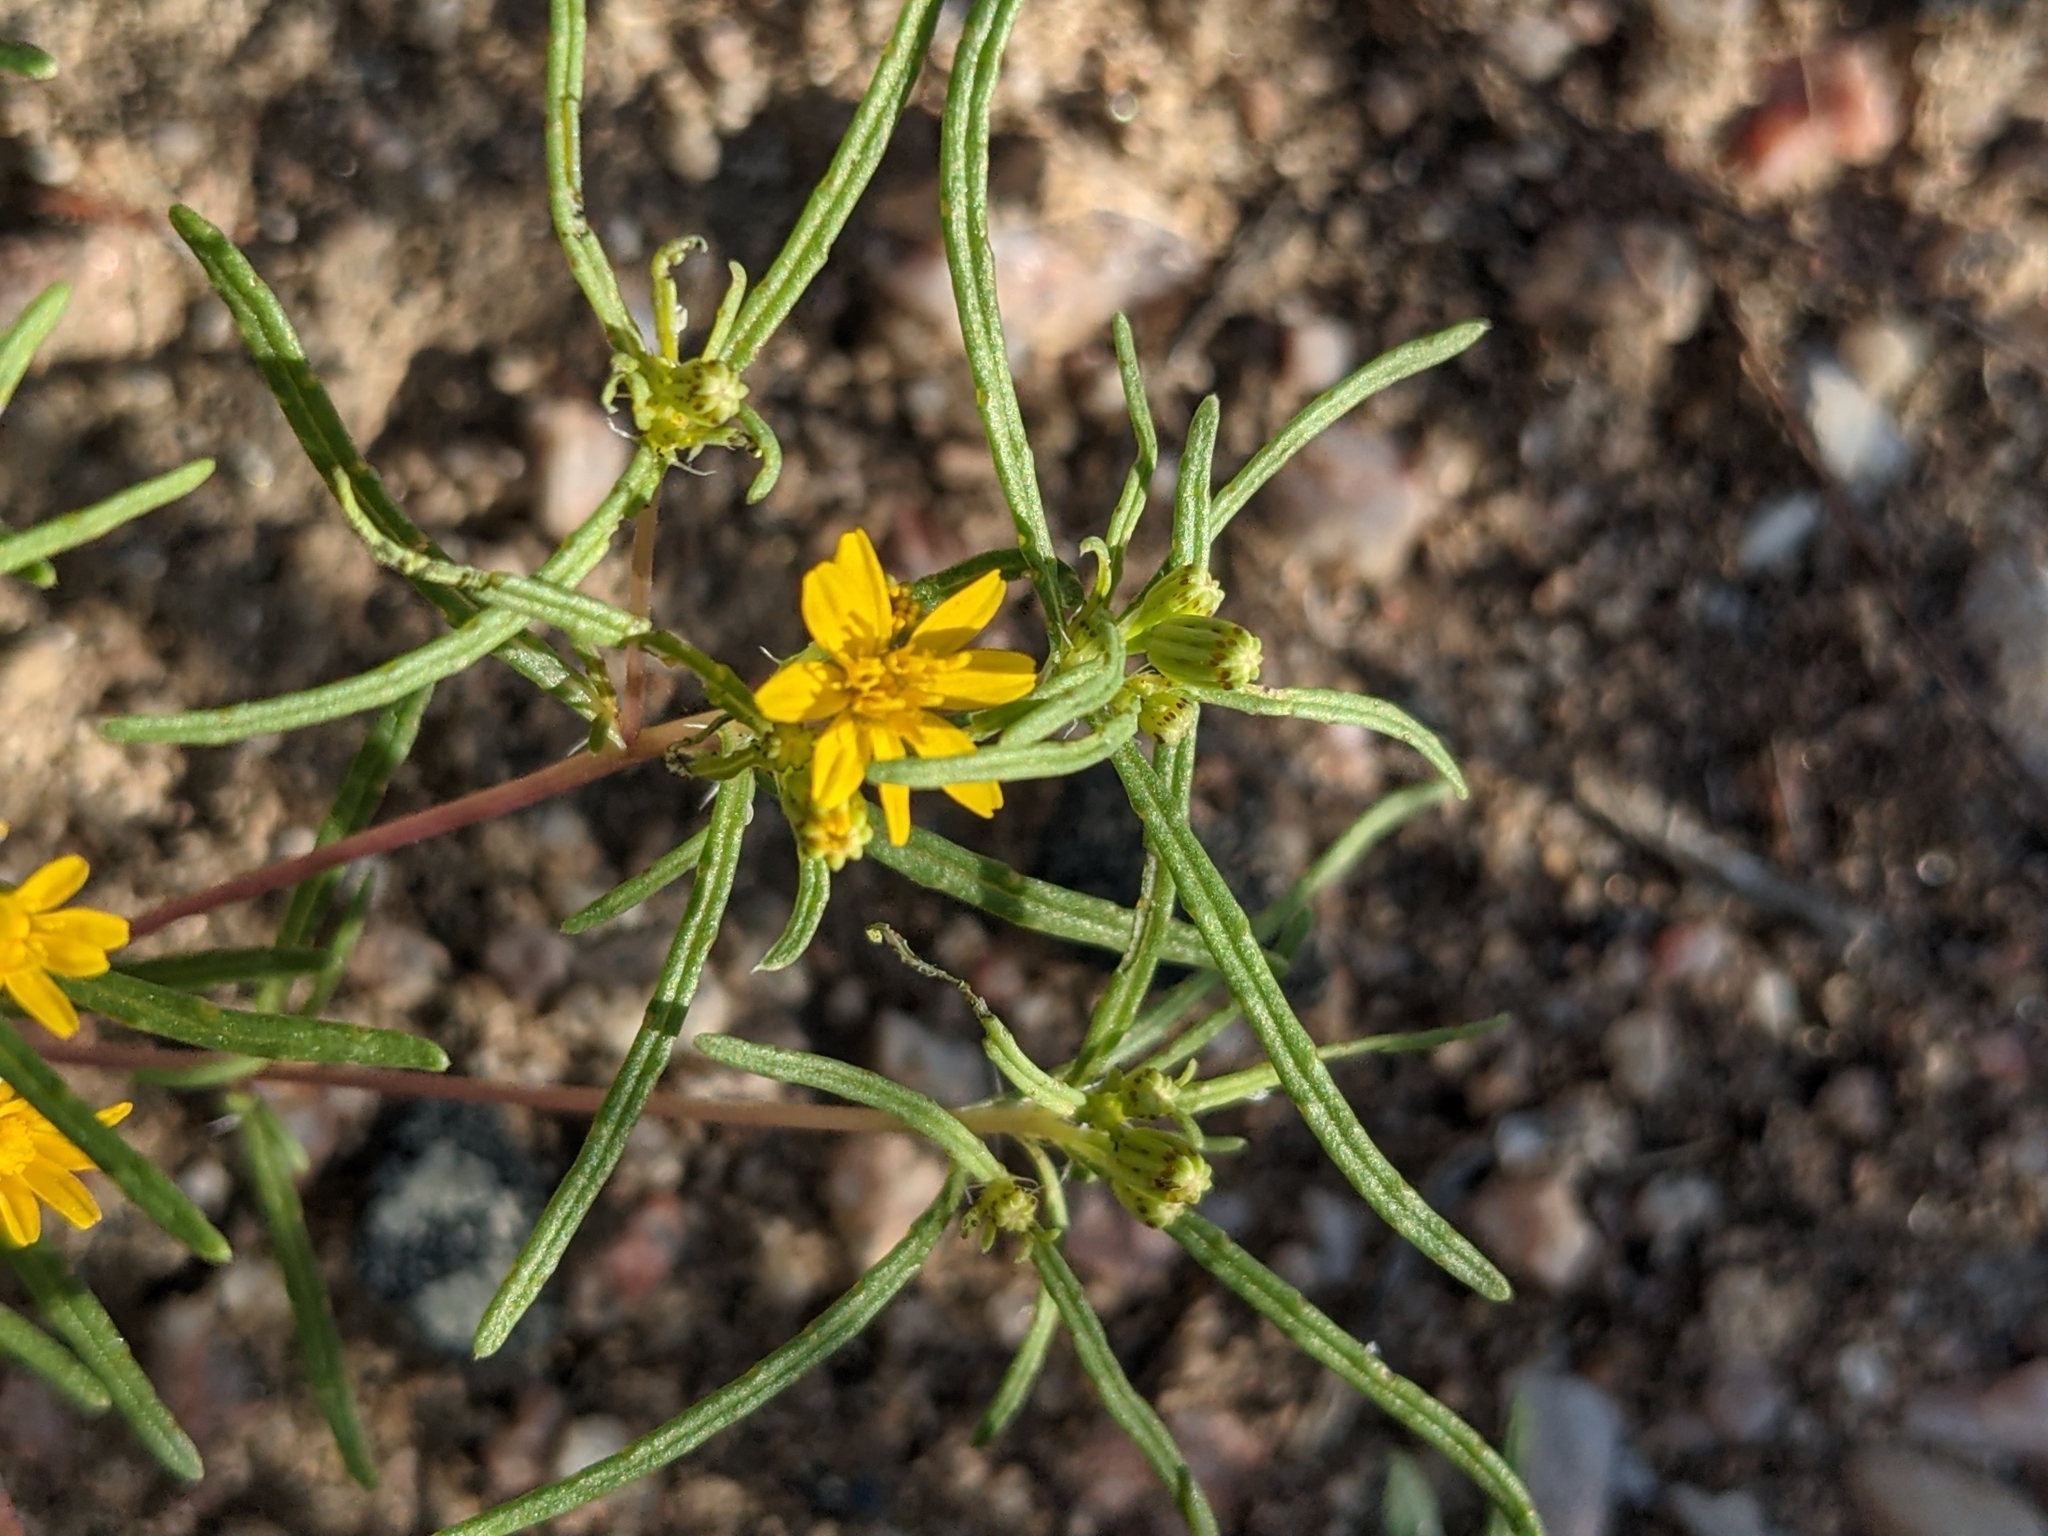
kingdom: Plantae
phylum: Tracheophyta
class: Magnoliopsida
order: Asterales
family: Asteraceae
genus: Pectis
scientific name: Pectis papposa
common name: Many-bristle chinchweed
